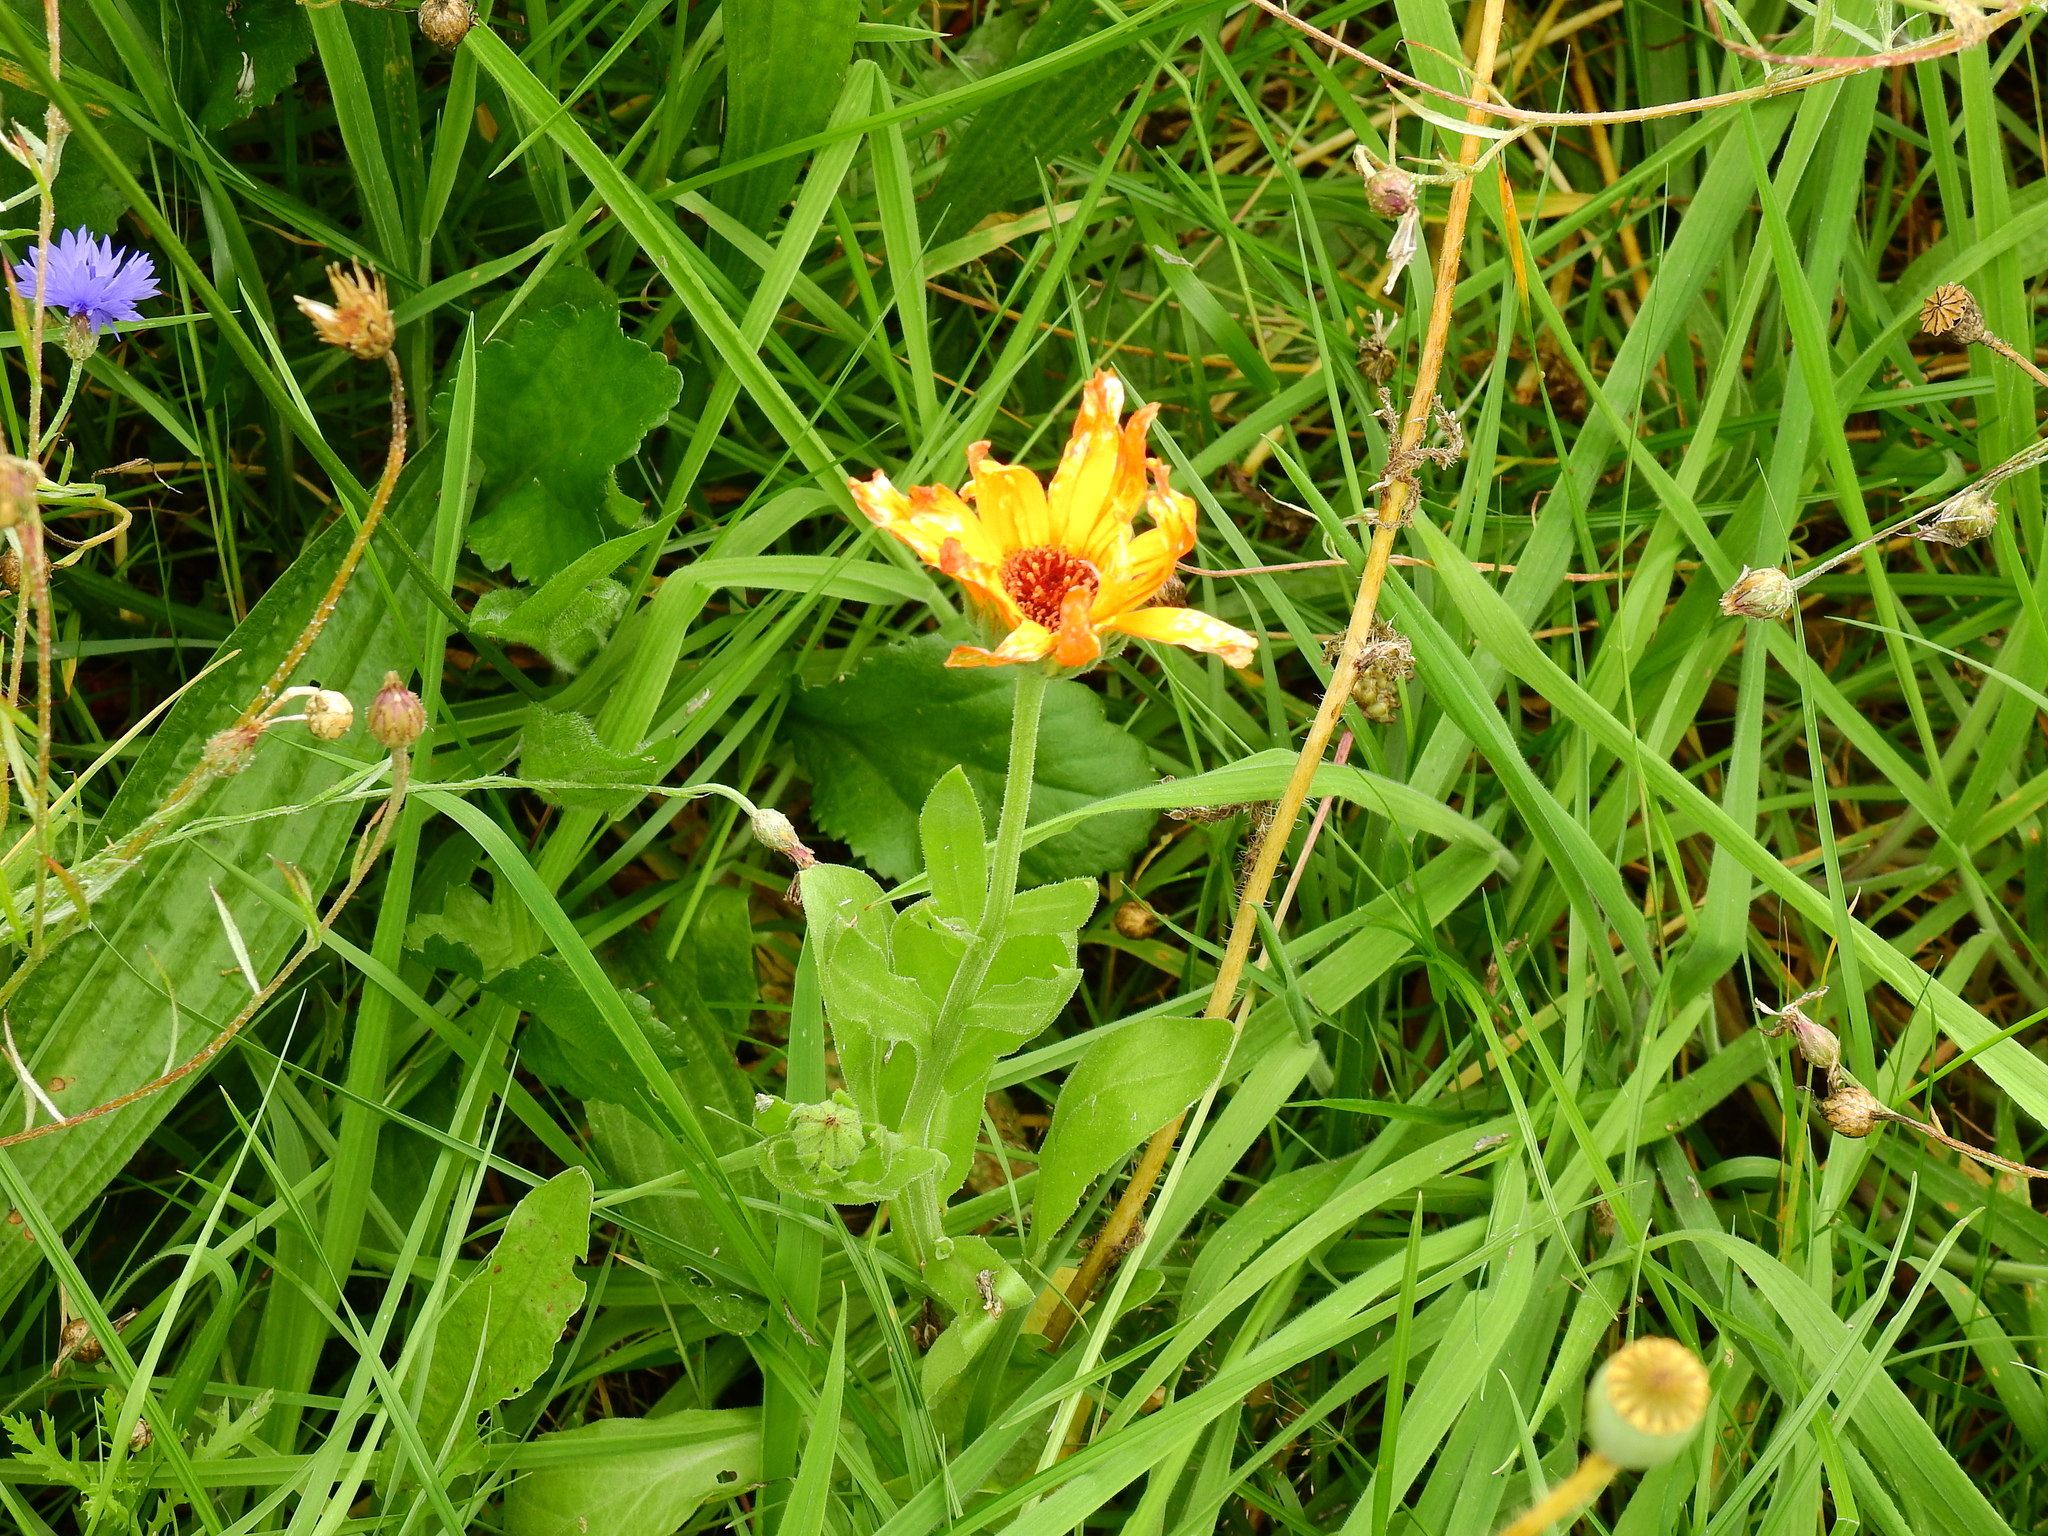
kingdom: Plantae
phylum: Tracheophyta
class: Magnoliopsida
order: Asterales
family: Asteraceae
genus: Calendula
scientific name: Calendula officinalis
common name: Pot marigold
